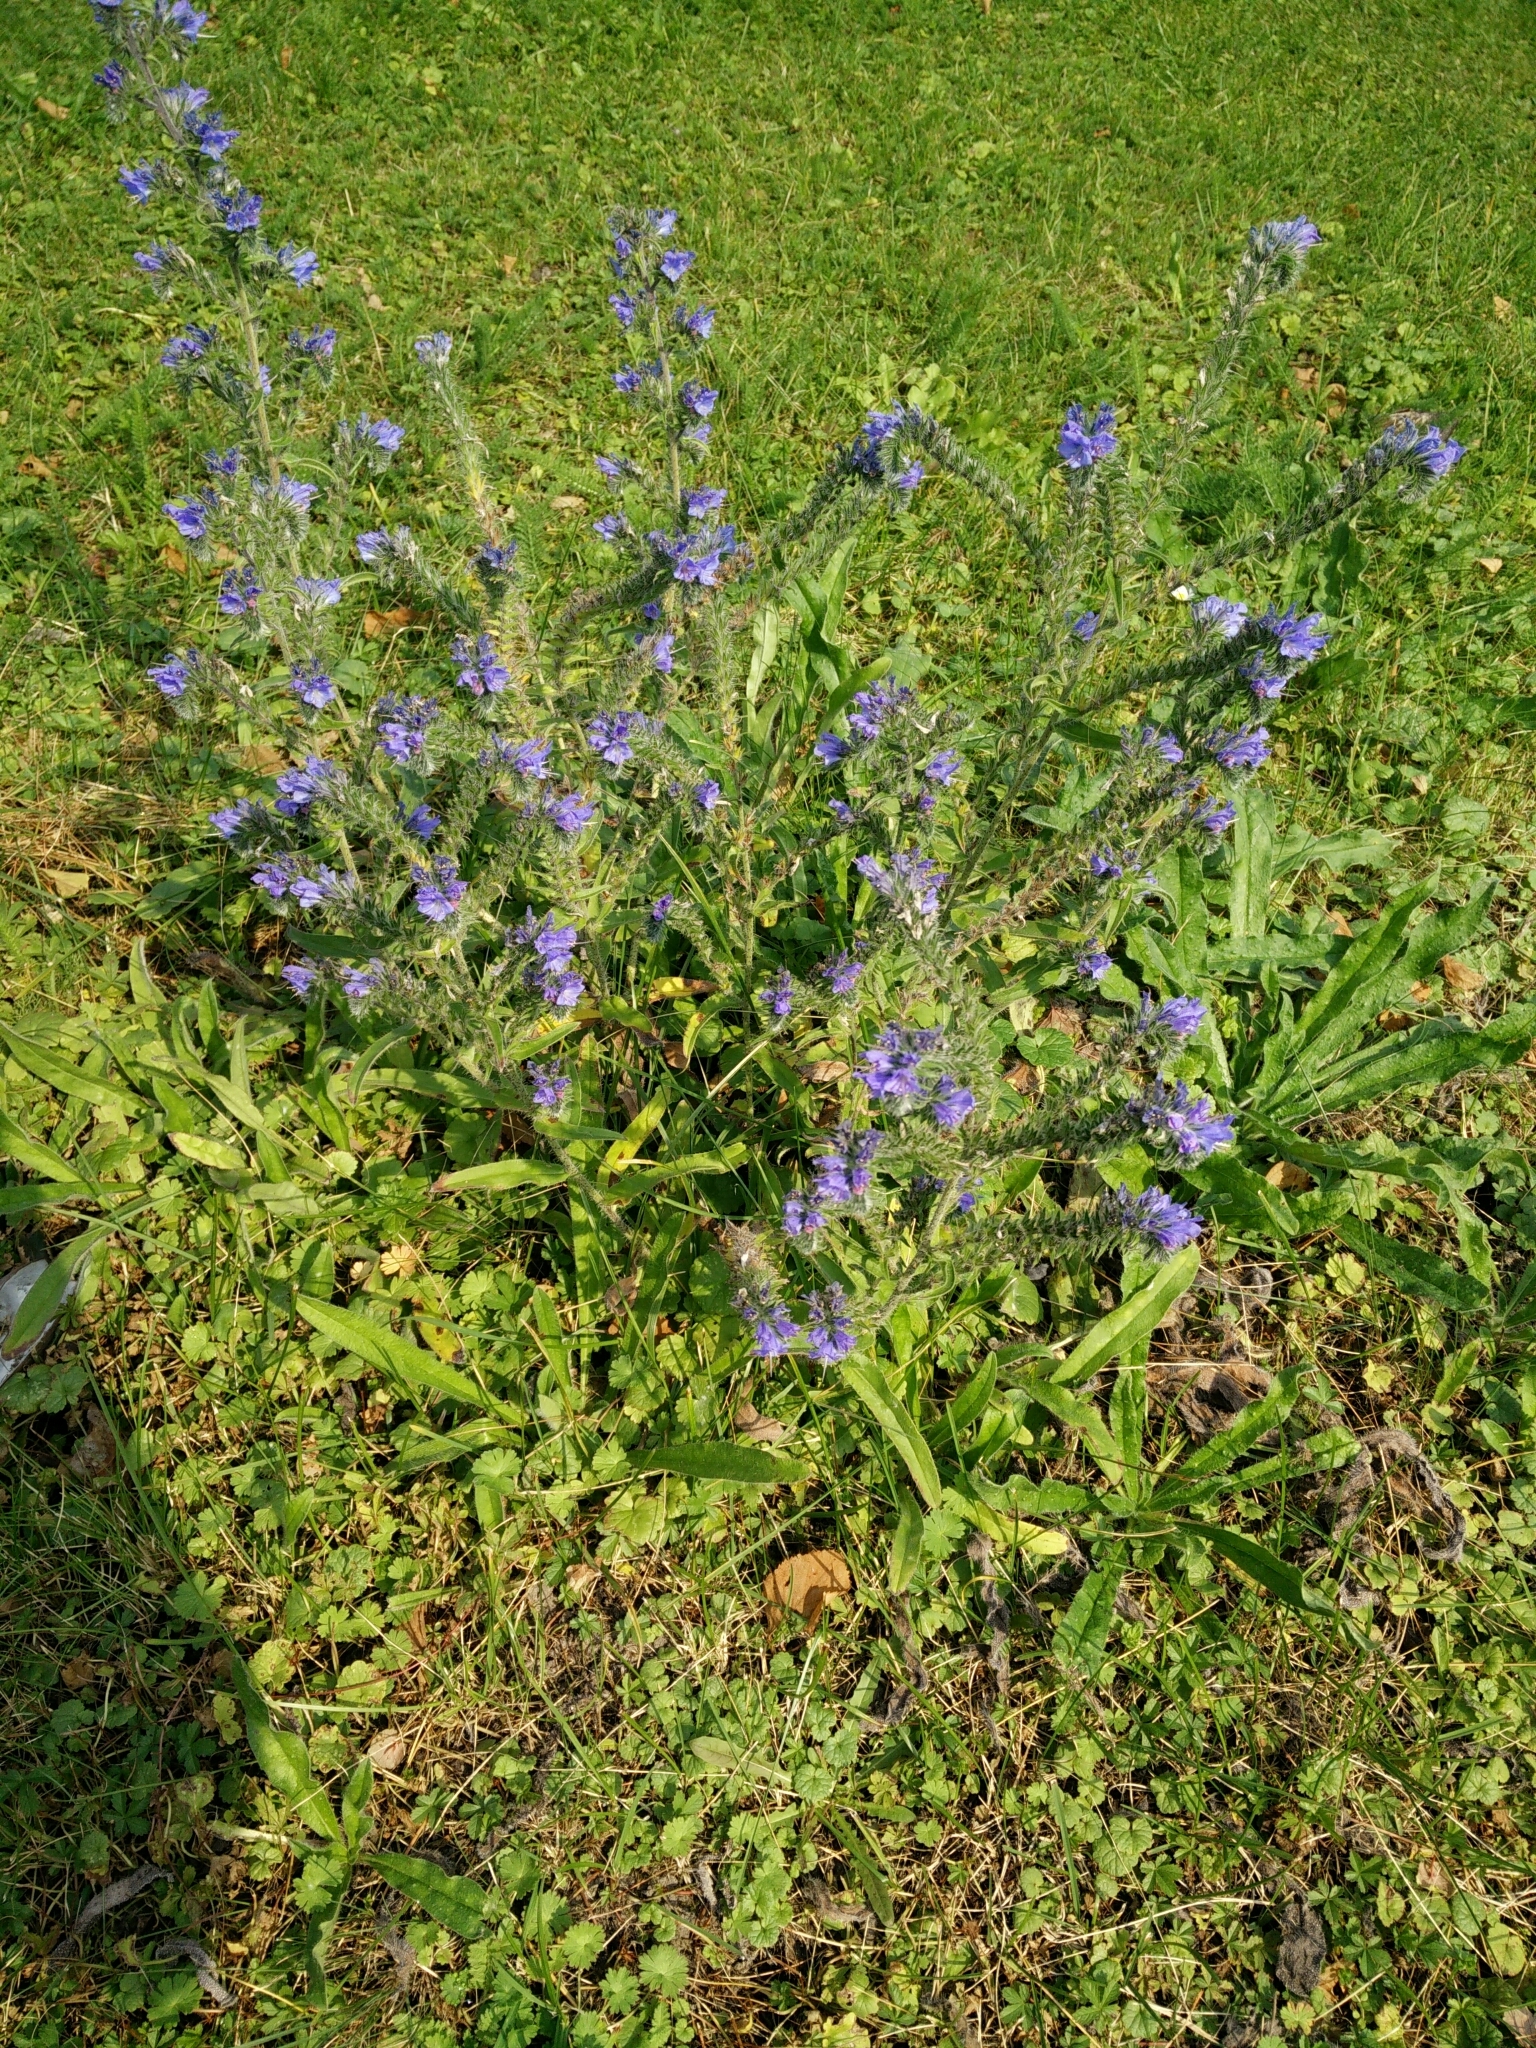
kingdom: Plantae
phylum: Tracheophyta
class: Magnoliopsida
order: Boraginales
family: Boraginaceae
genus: Echium
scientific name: Echium vulgare
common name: Common viper's bugloss
